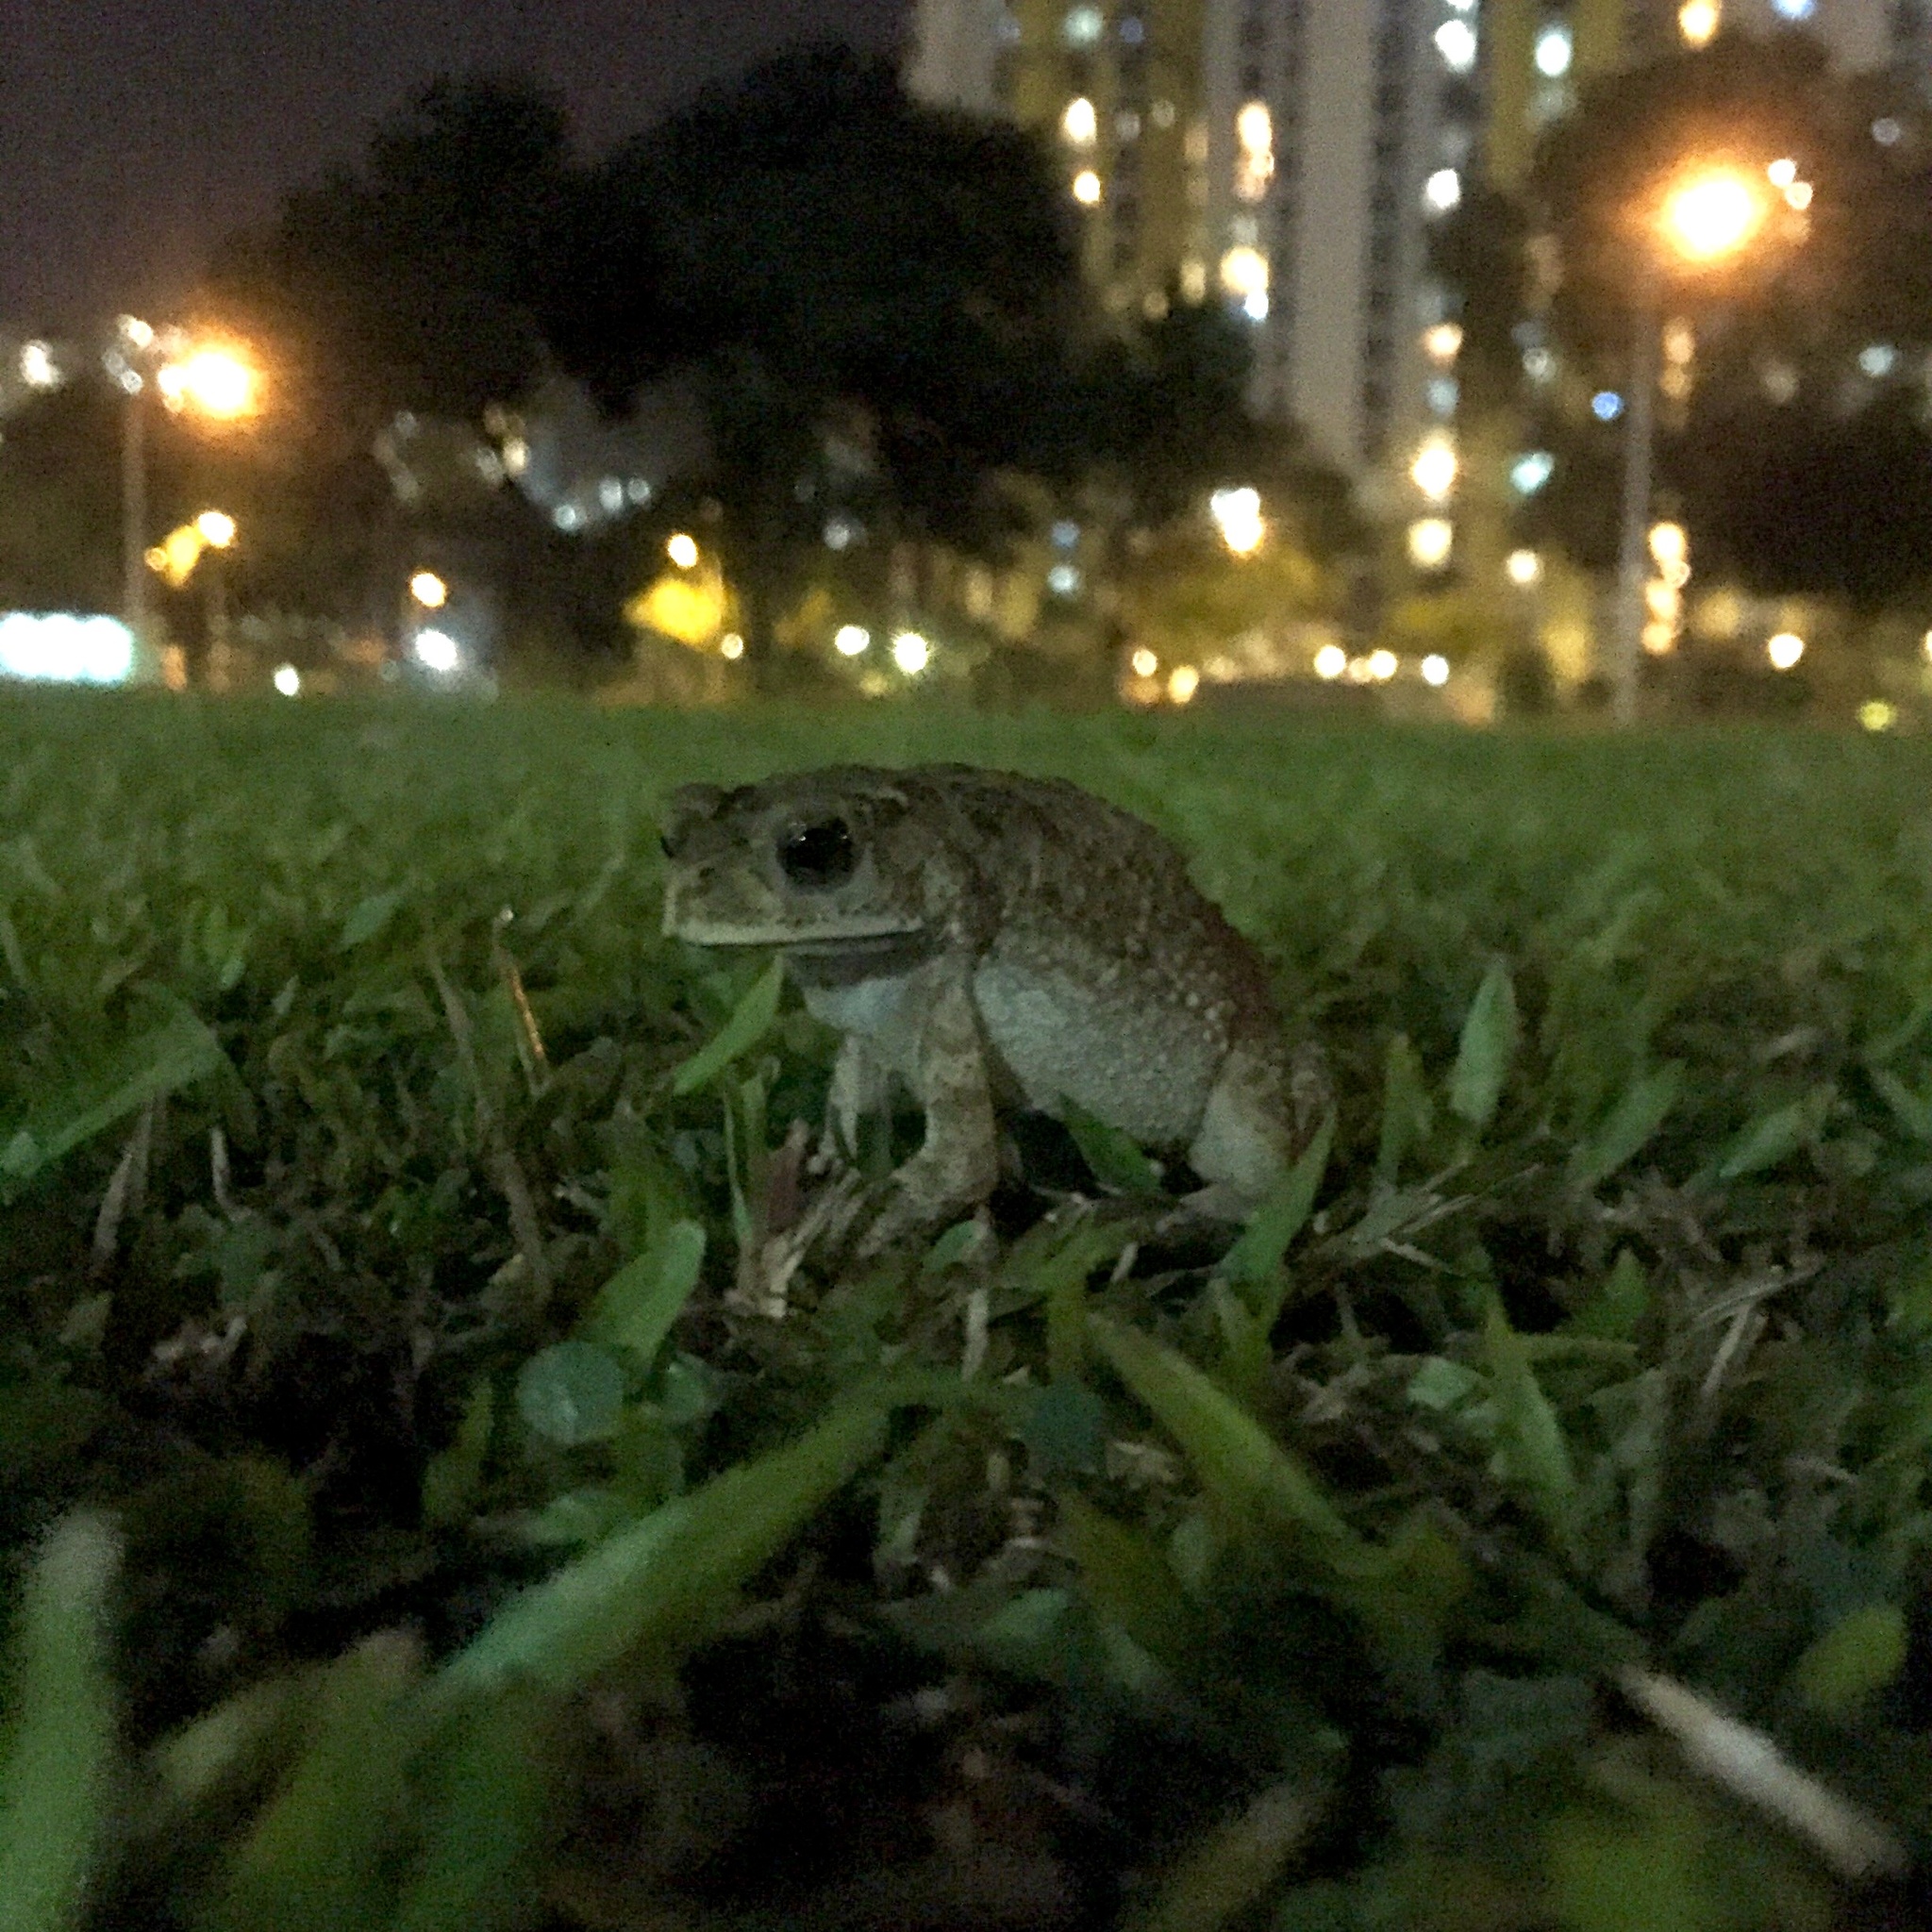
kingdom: Animalia
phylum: Chordata
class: Amphibia
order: Anura
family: Bufonidae
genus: Duttaphrynus
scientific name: Duttaphrynus melanostictus
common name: Common sunda toad
